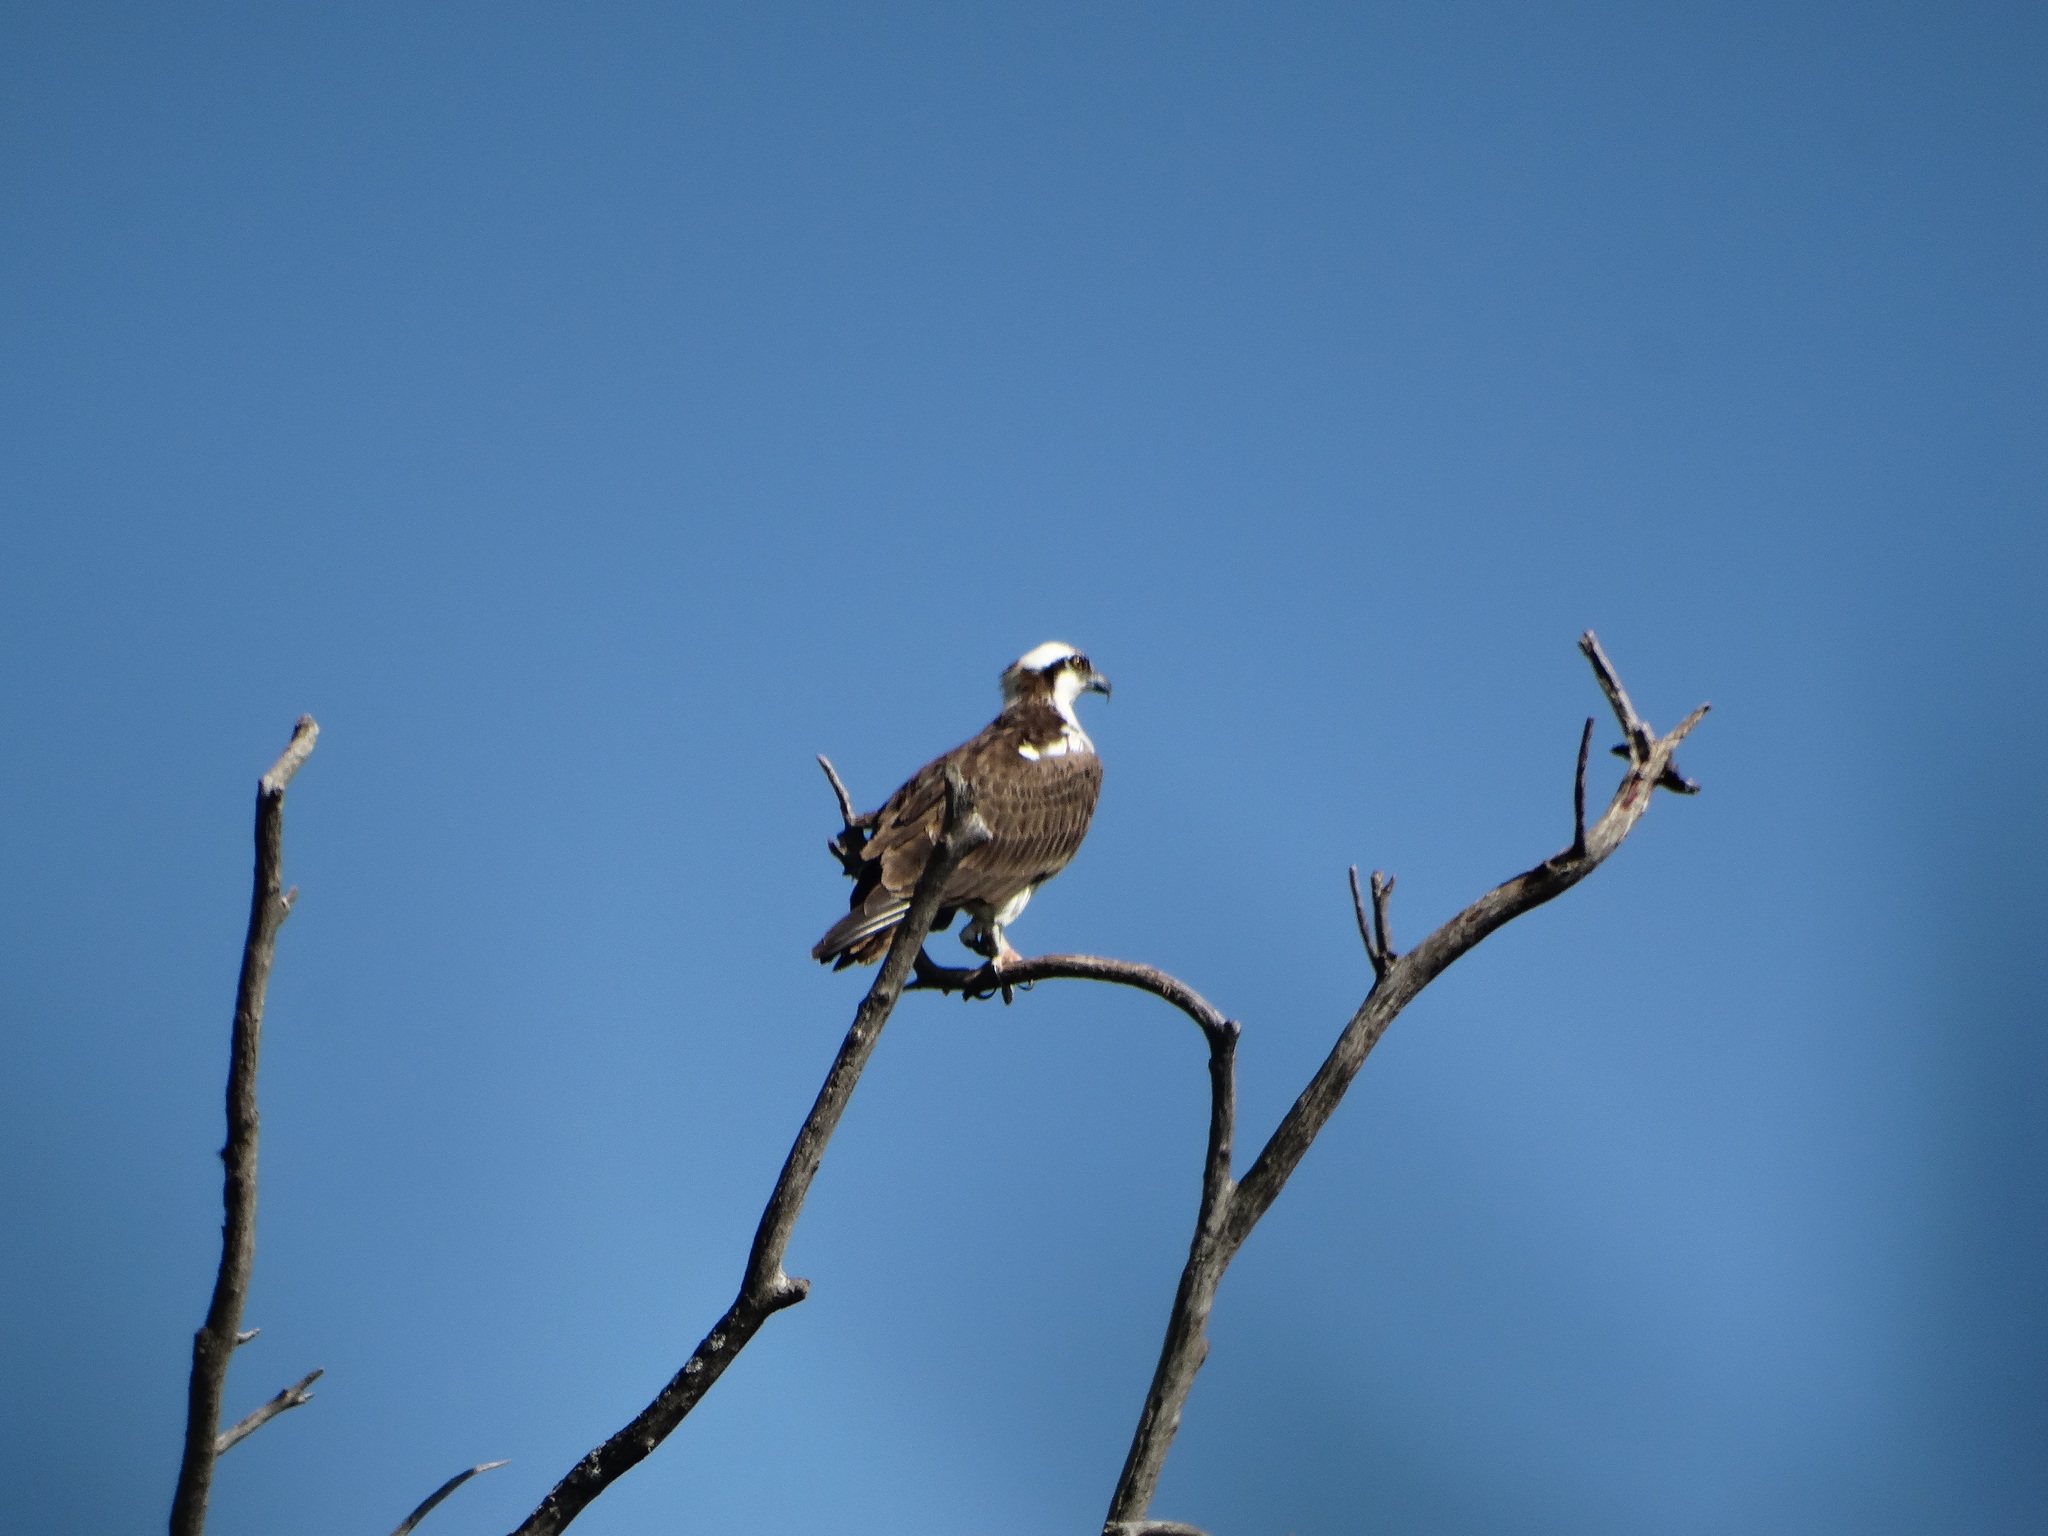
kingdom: Animalia
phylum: Chordata
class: Aves
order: Accipitriformes
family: Pandionidae
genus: Pandion
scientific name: Pandion haliaetus
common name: Osprey
